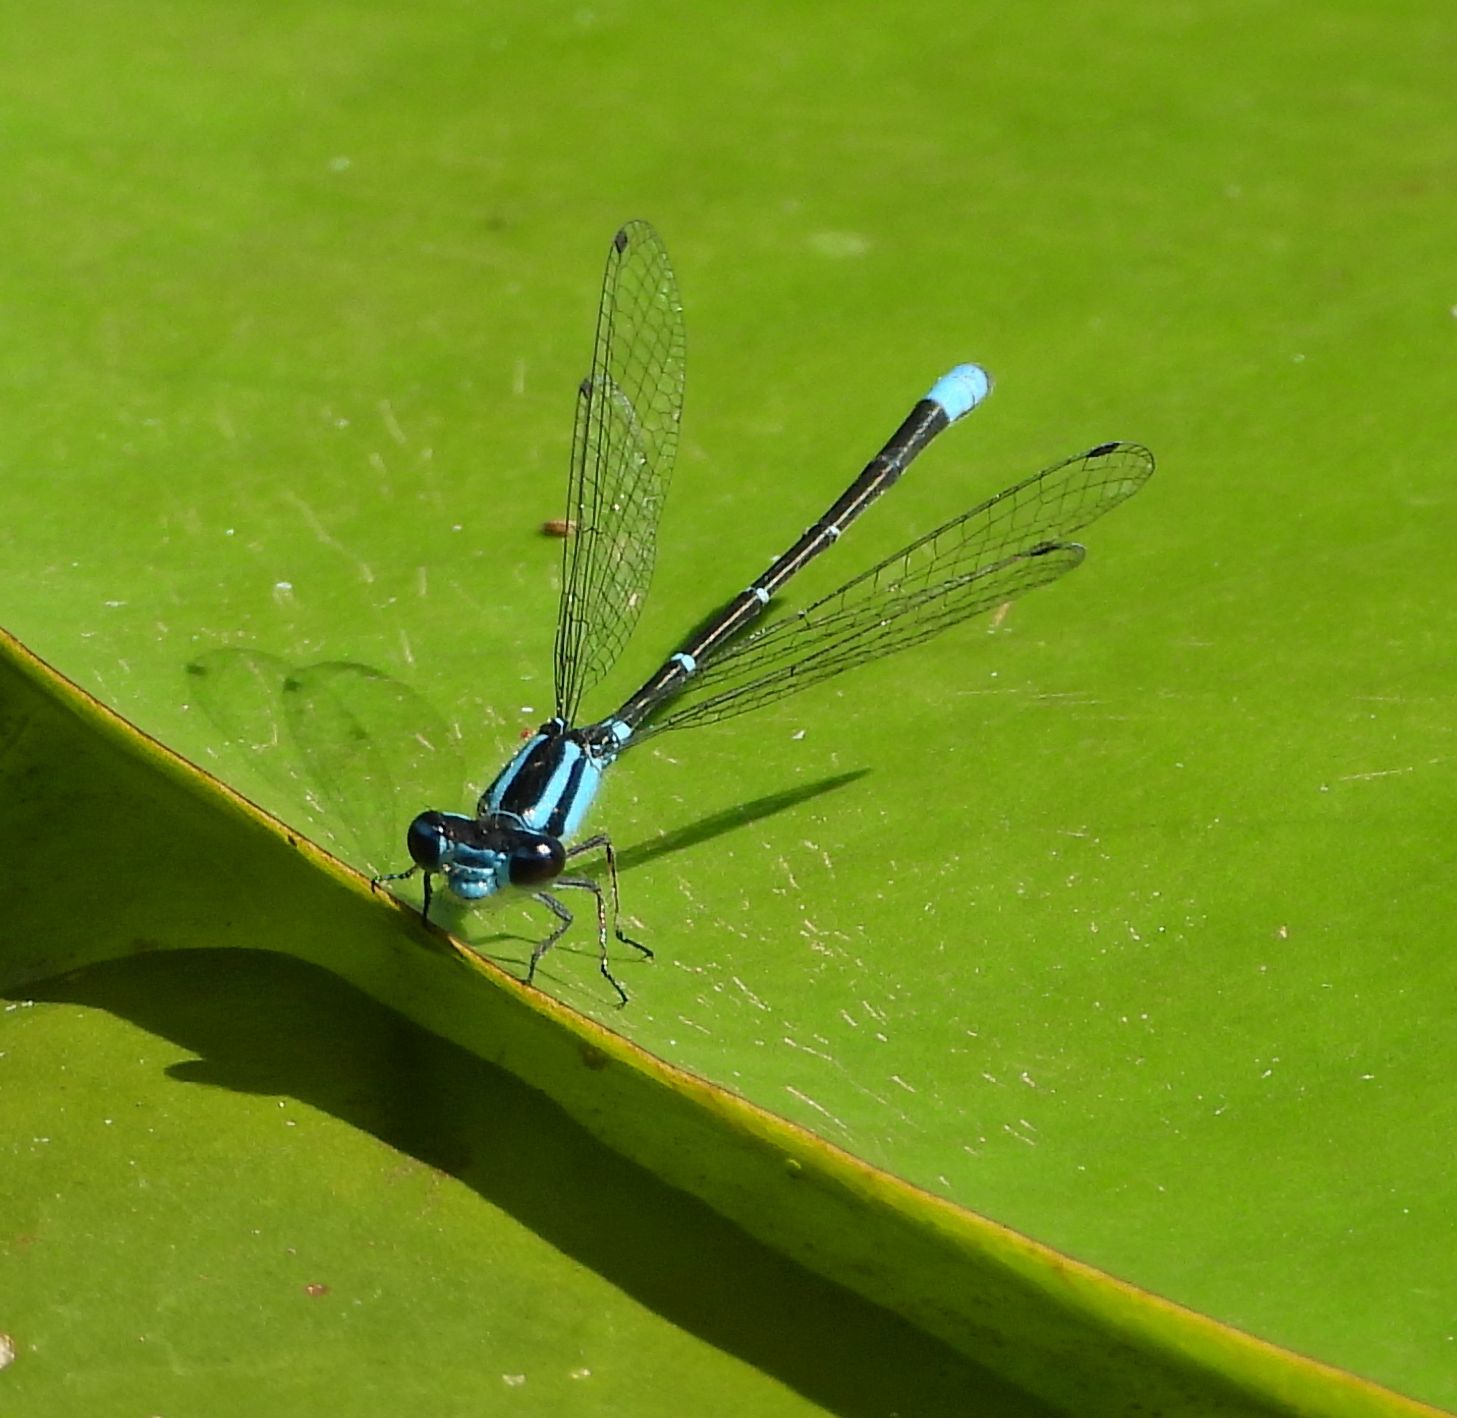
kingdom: Animalia
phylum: Arthropoda
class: Insecta
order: Odonata
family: Coenagrionidae
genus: Enallagma
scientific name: Enallagma geminatum
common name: Skimming bluet
